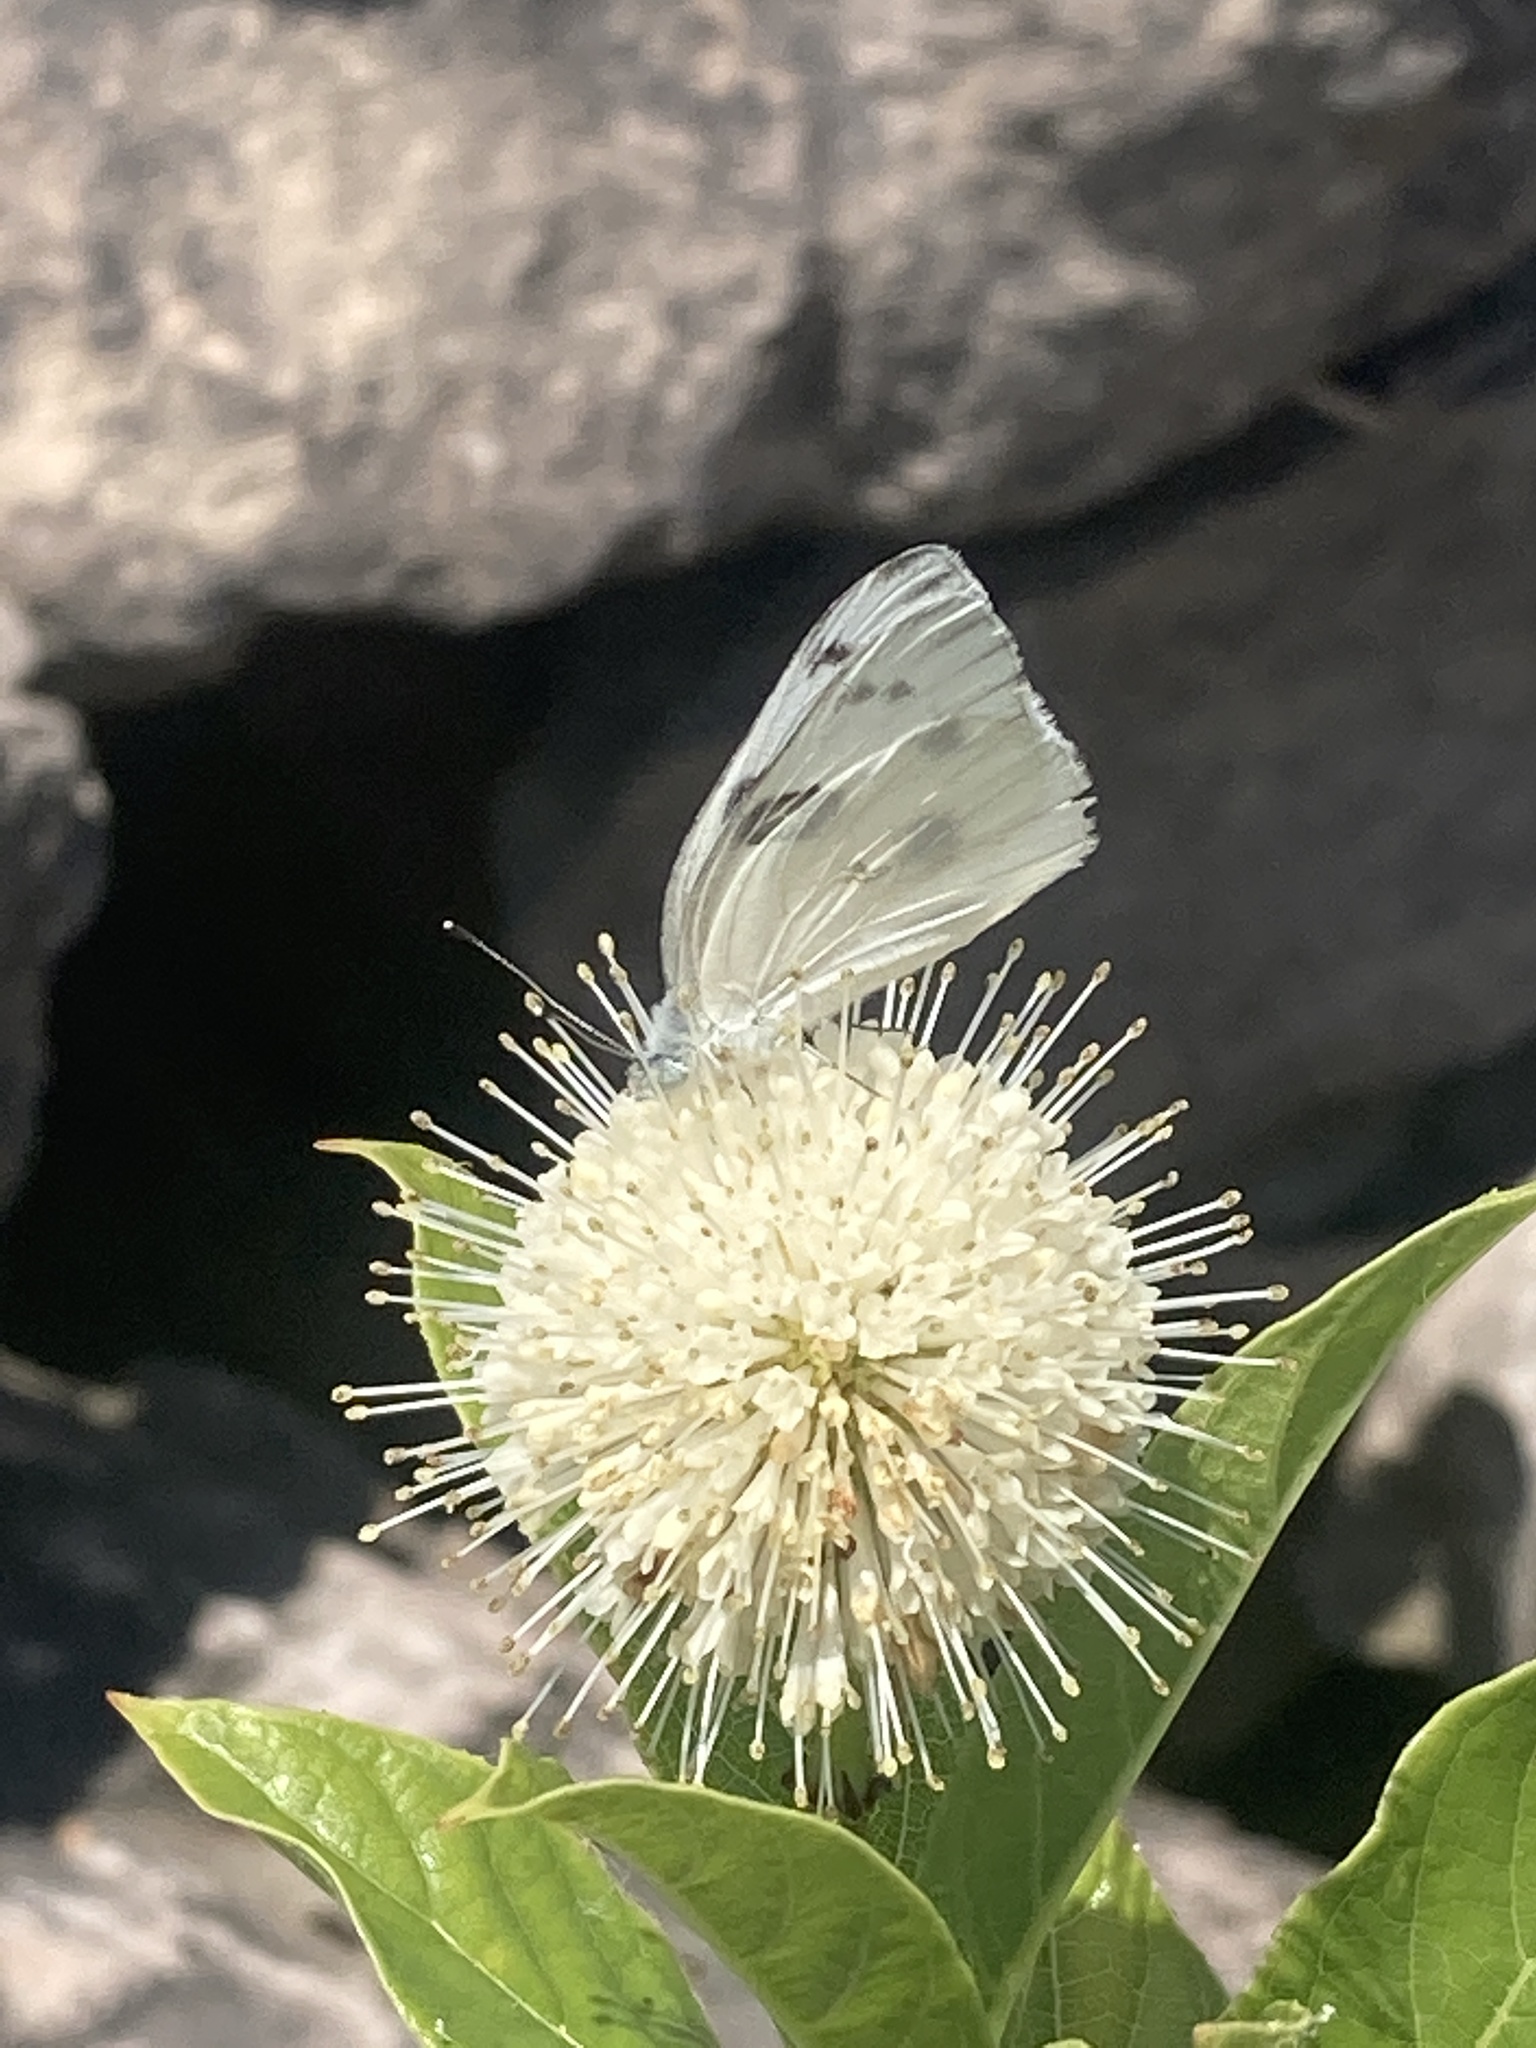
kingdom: Animalia
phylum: Arthropoda
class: Insecta
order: Lepidoptera
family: Pieridae
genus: Pontia
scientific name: Pontia protodice
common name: Checkered white
